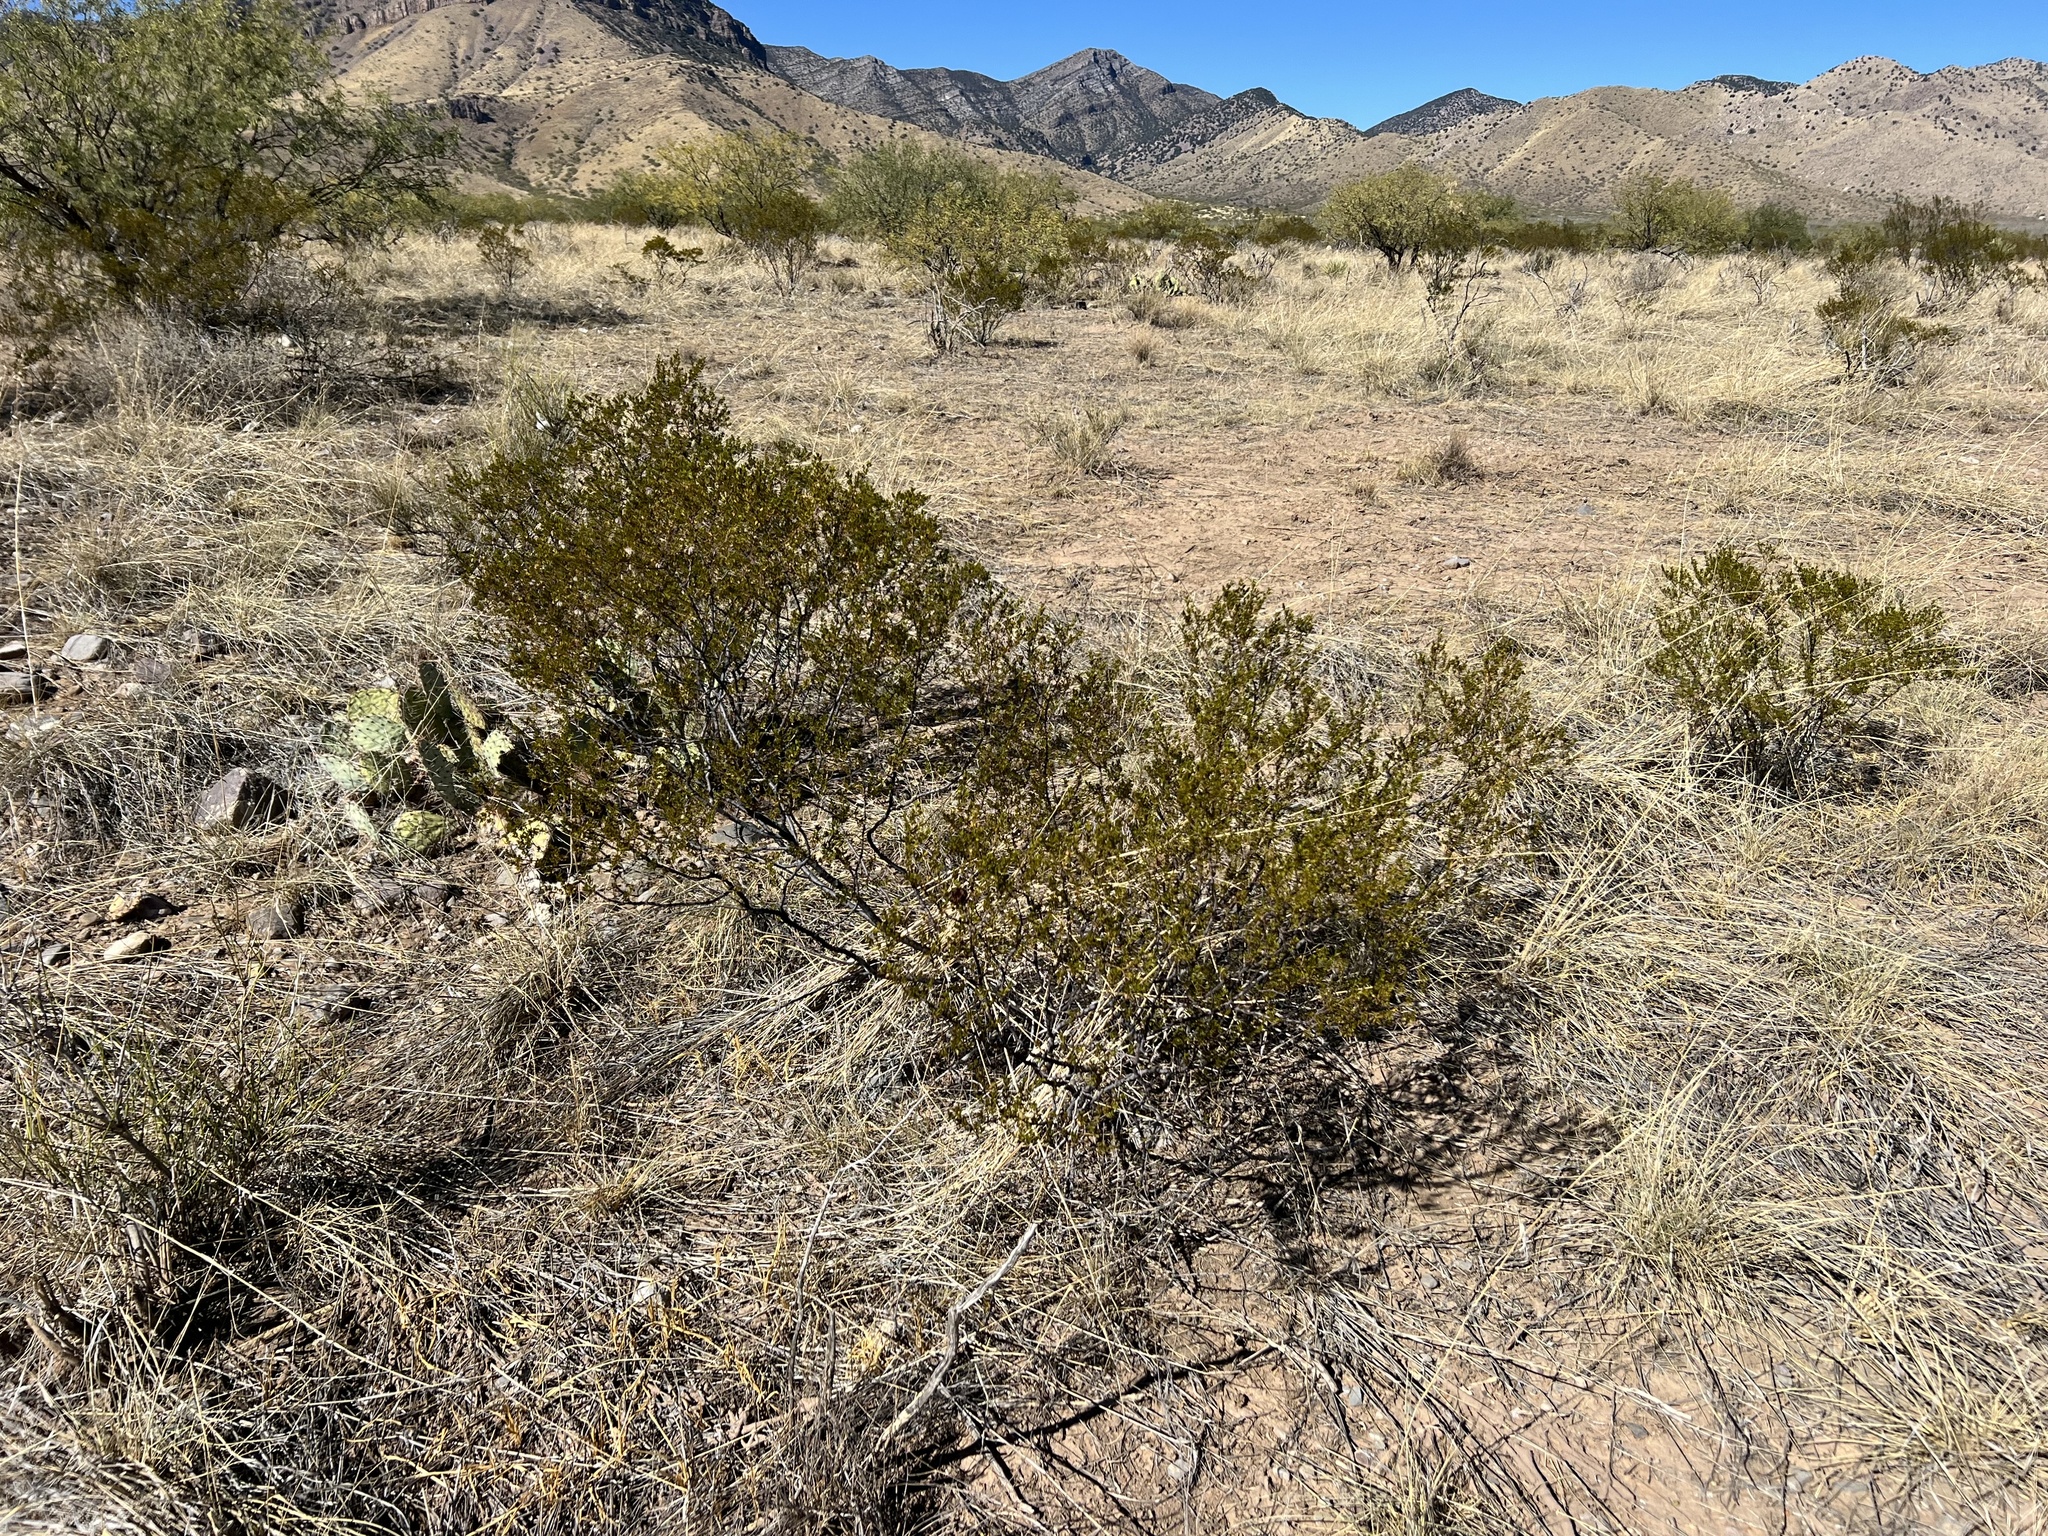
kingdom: Plantae
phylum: Tracheophyta
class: Magnoliopsida
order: Zygophyllales
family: Zygophyllaceae
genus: Larrea
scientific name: Larrea tridentata
